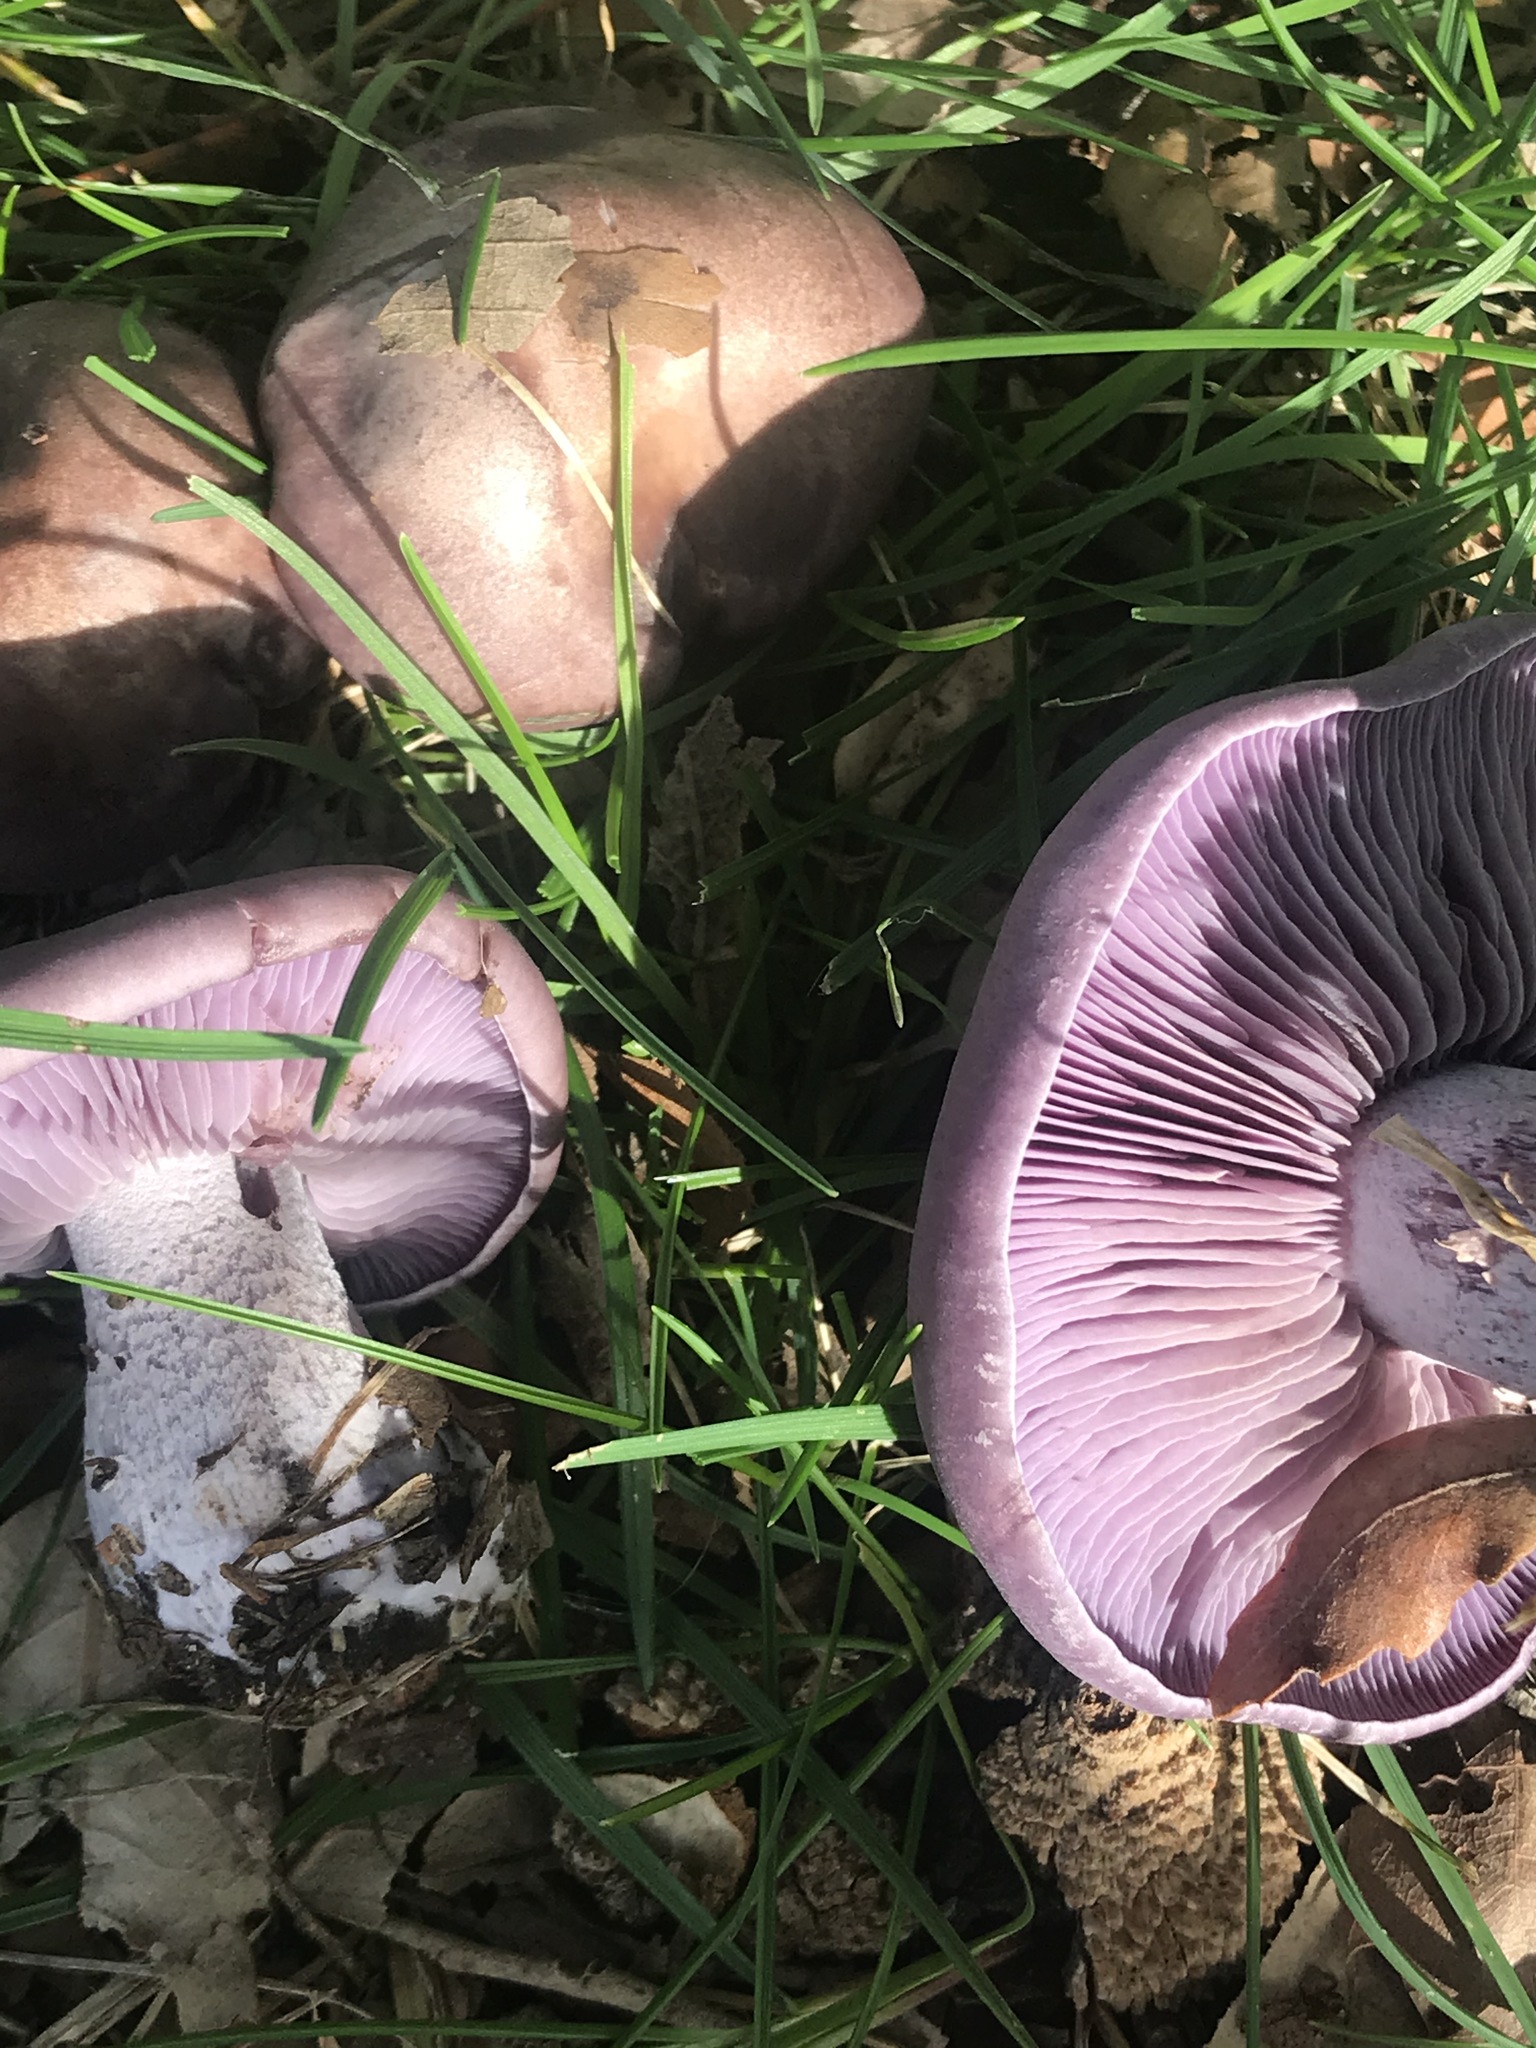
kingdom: Fungi
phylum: Basidiomycota
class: Agaricomycetes
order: Agaricales
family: Tricholomataceae
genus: Collybia
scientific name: Collybia
